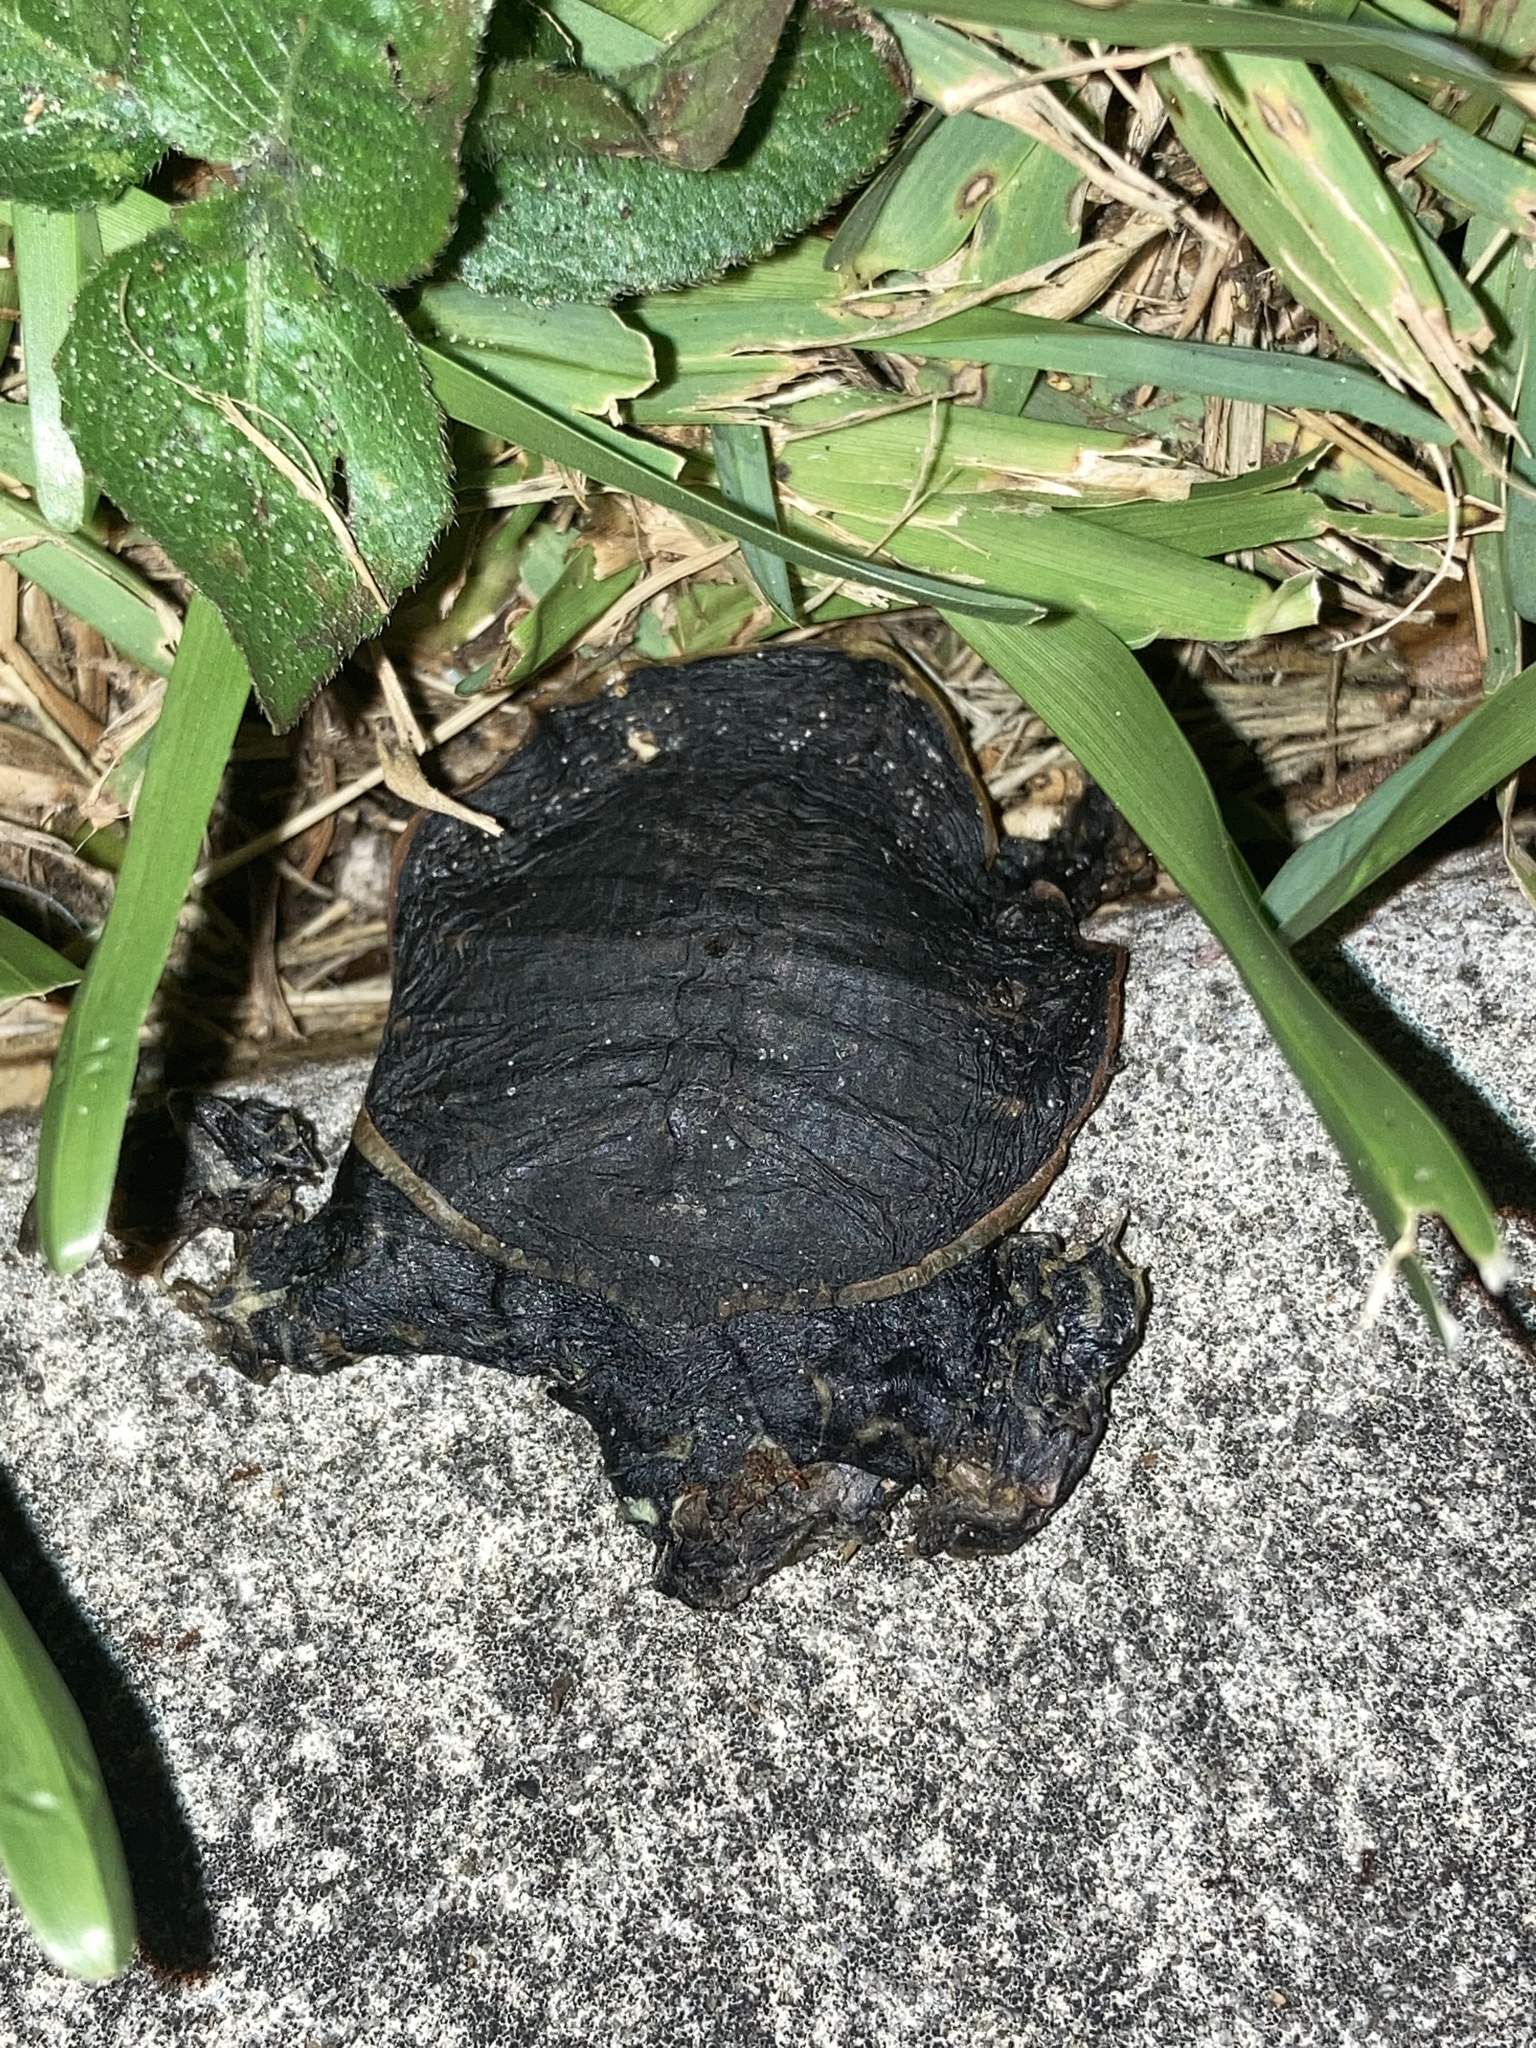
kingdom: Animalia
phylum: Chordata
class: Testudines
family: Trionychidae
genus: Apalone
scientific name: Apalone ferox
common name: Florida softshell turtle
